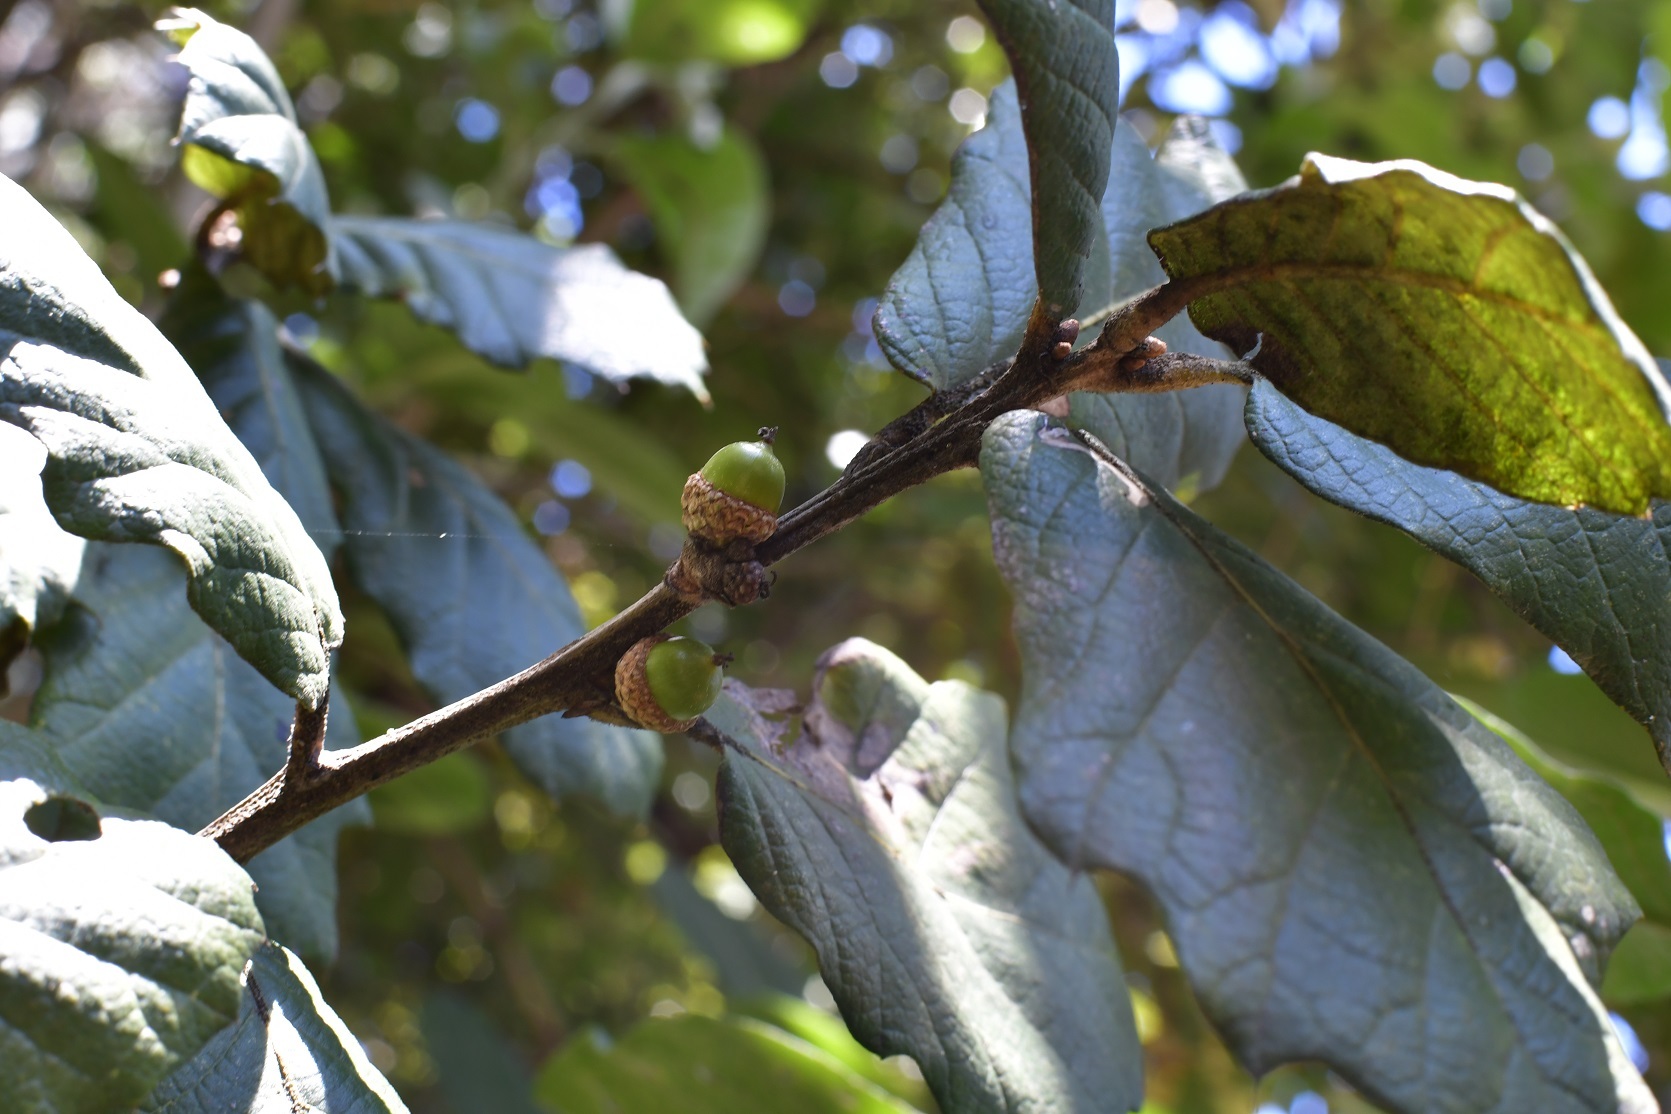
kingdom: Plantae
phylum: Tracheophyta
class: Magnoliopsida
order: Fagales
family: Fagaceae
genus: Quercus
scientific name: Quercus crassifolia
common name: Leather leaf mexican oak
